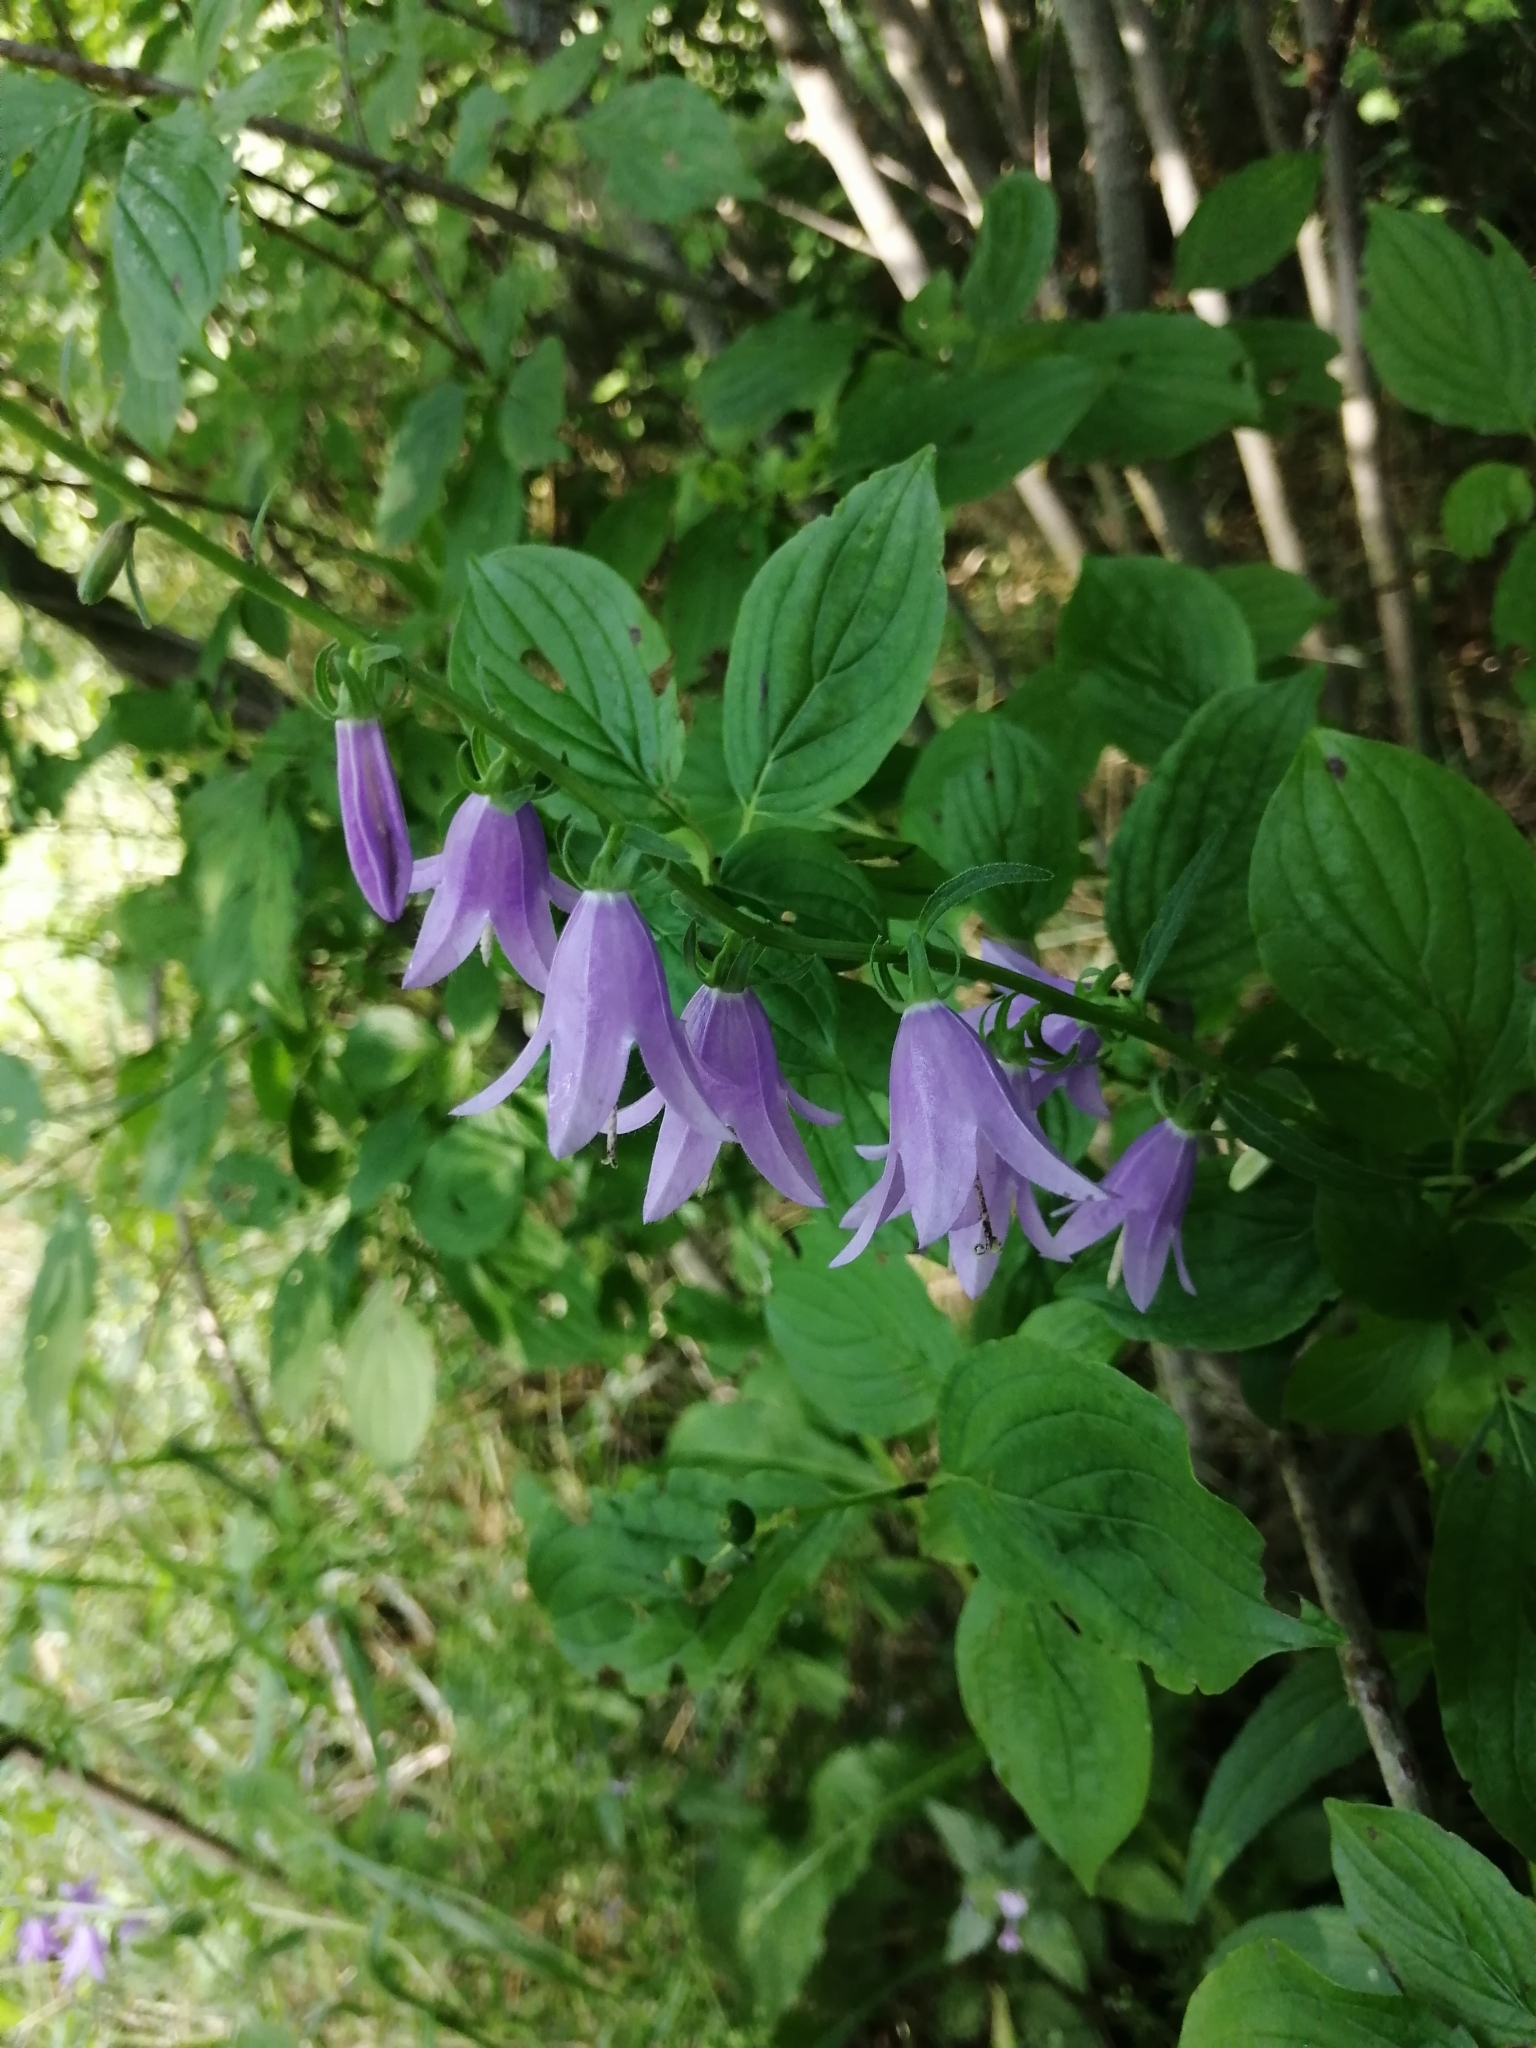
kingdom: Plantae
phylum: Tracheophyta
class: Magnoliopsida
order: Asterales
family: Campanulaceae
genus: Campanula
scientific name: Campanula rapunculoides
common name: Creeping bellflower
